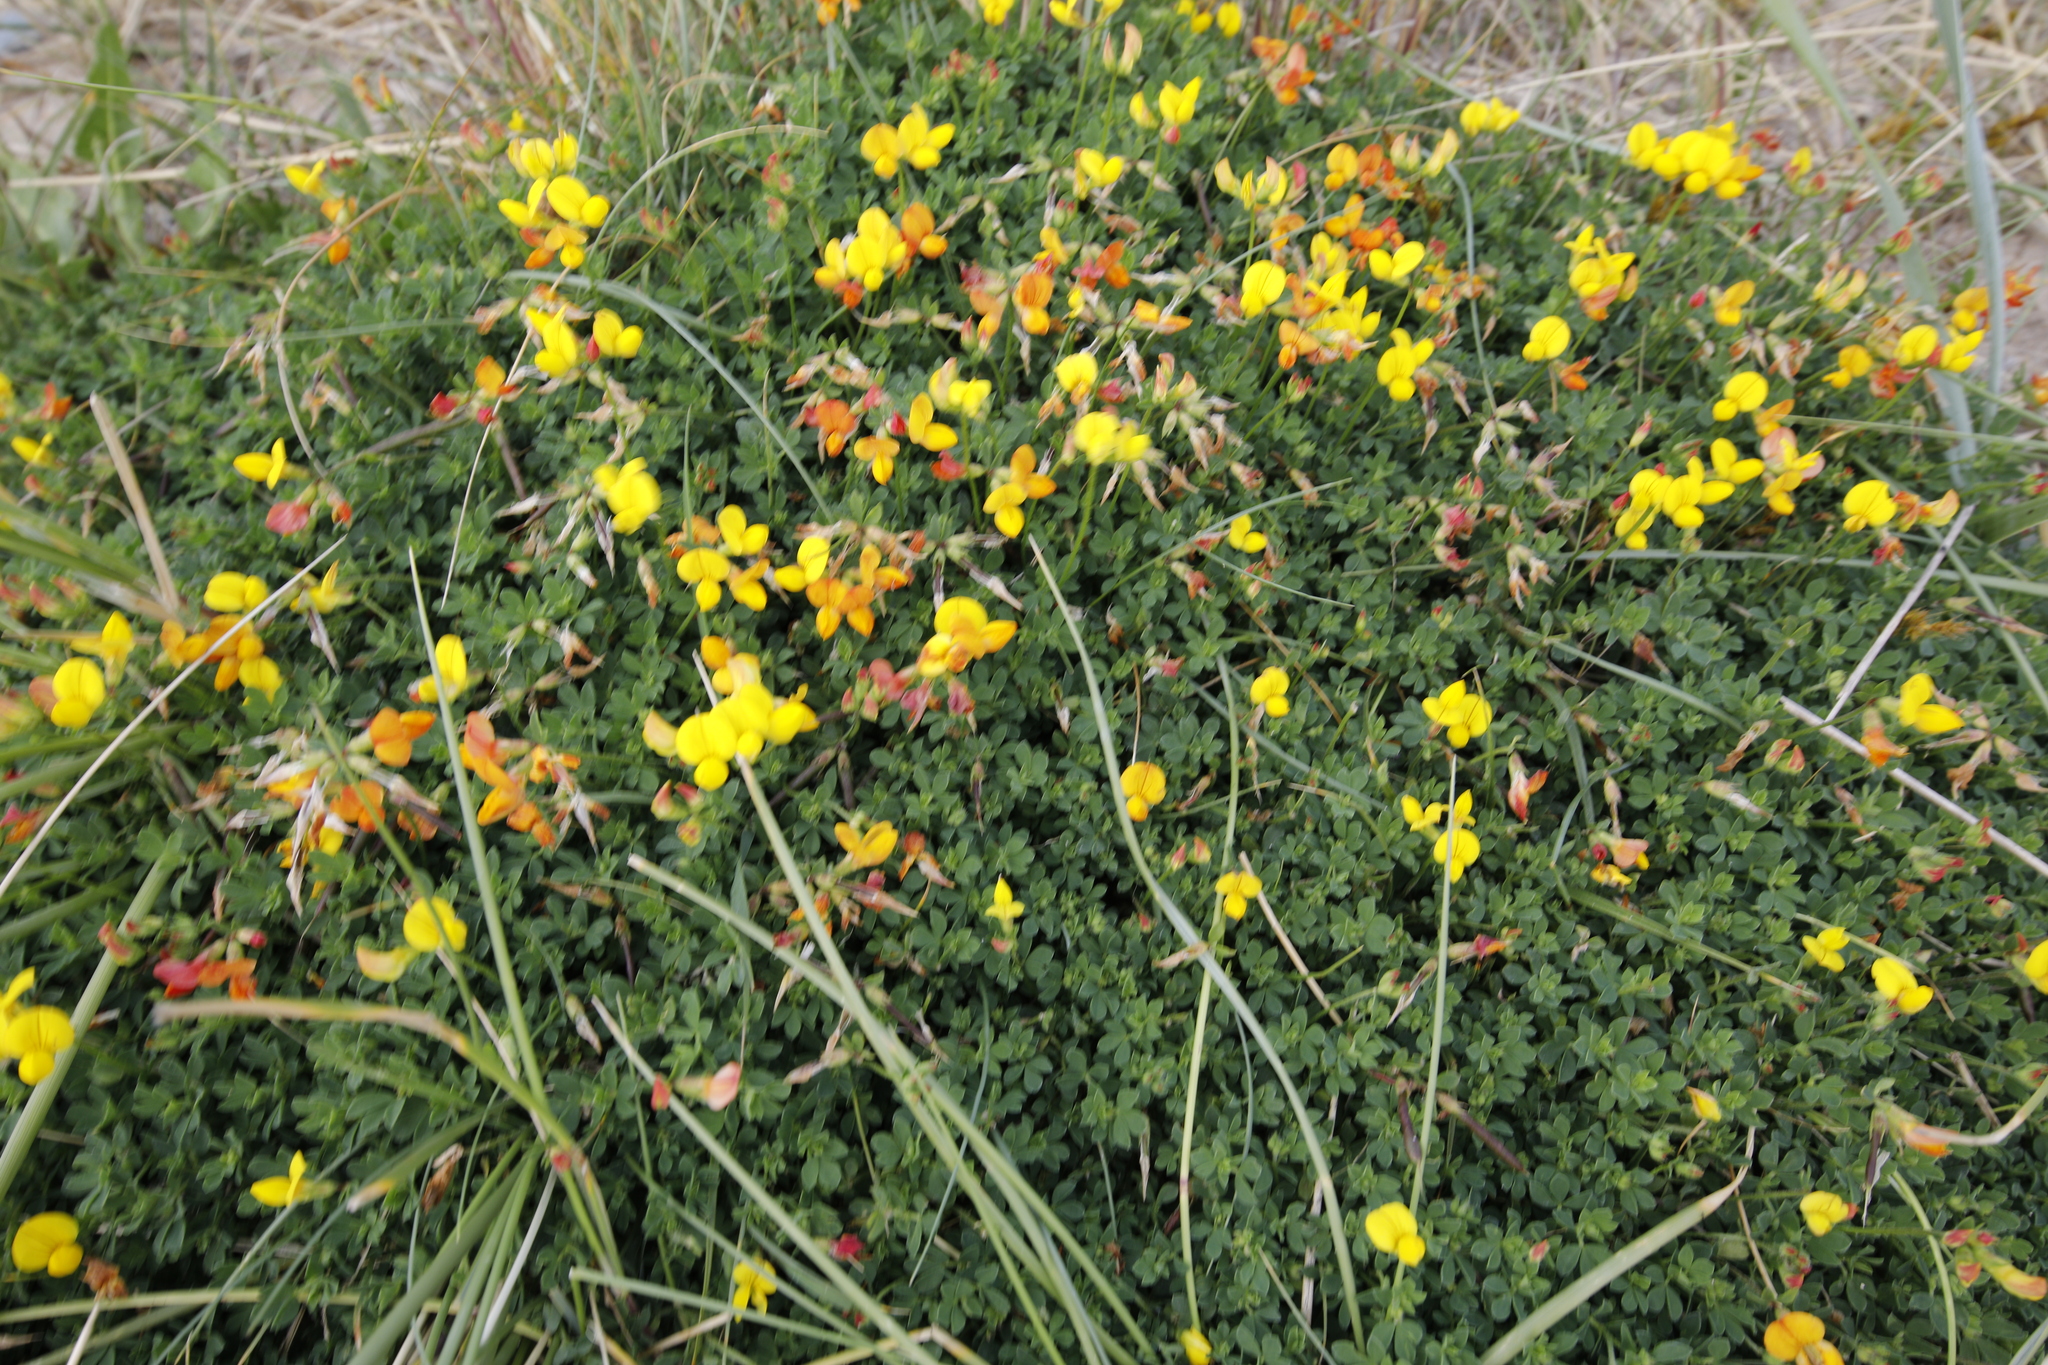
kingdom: Plantae
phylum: Tracheophyta
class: Magnoliopsida
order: Fabales
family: Fabaceae
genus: Lotus
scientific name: Lotus corniculatus
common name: Common bird's-foot-trefoil
